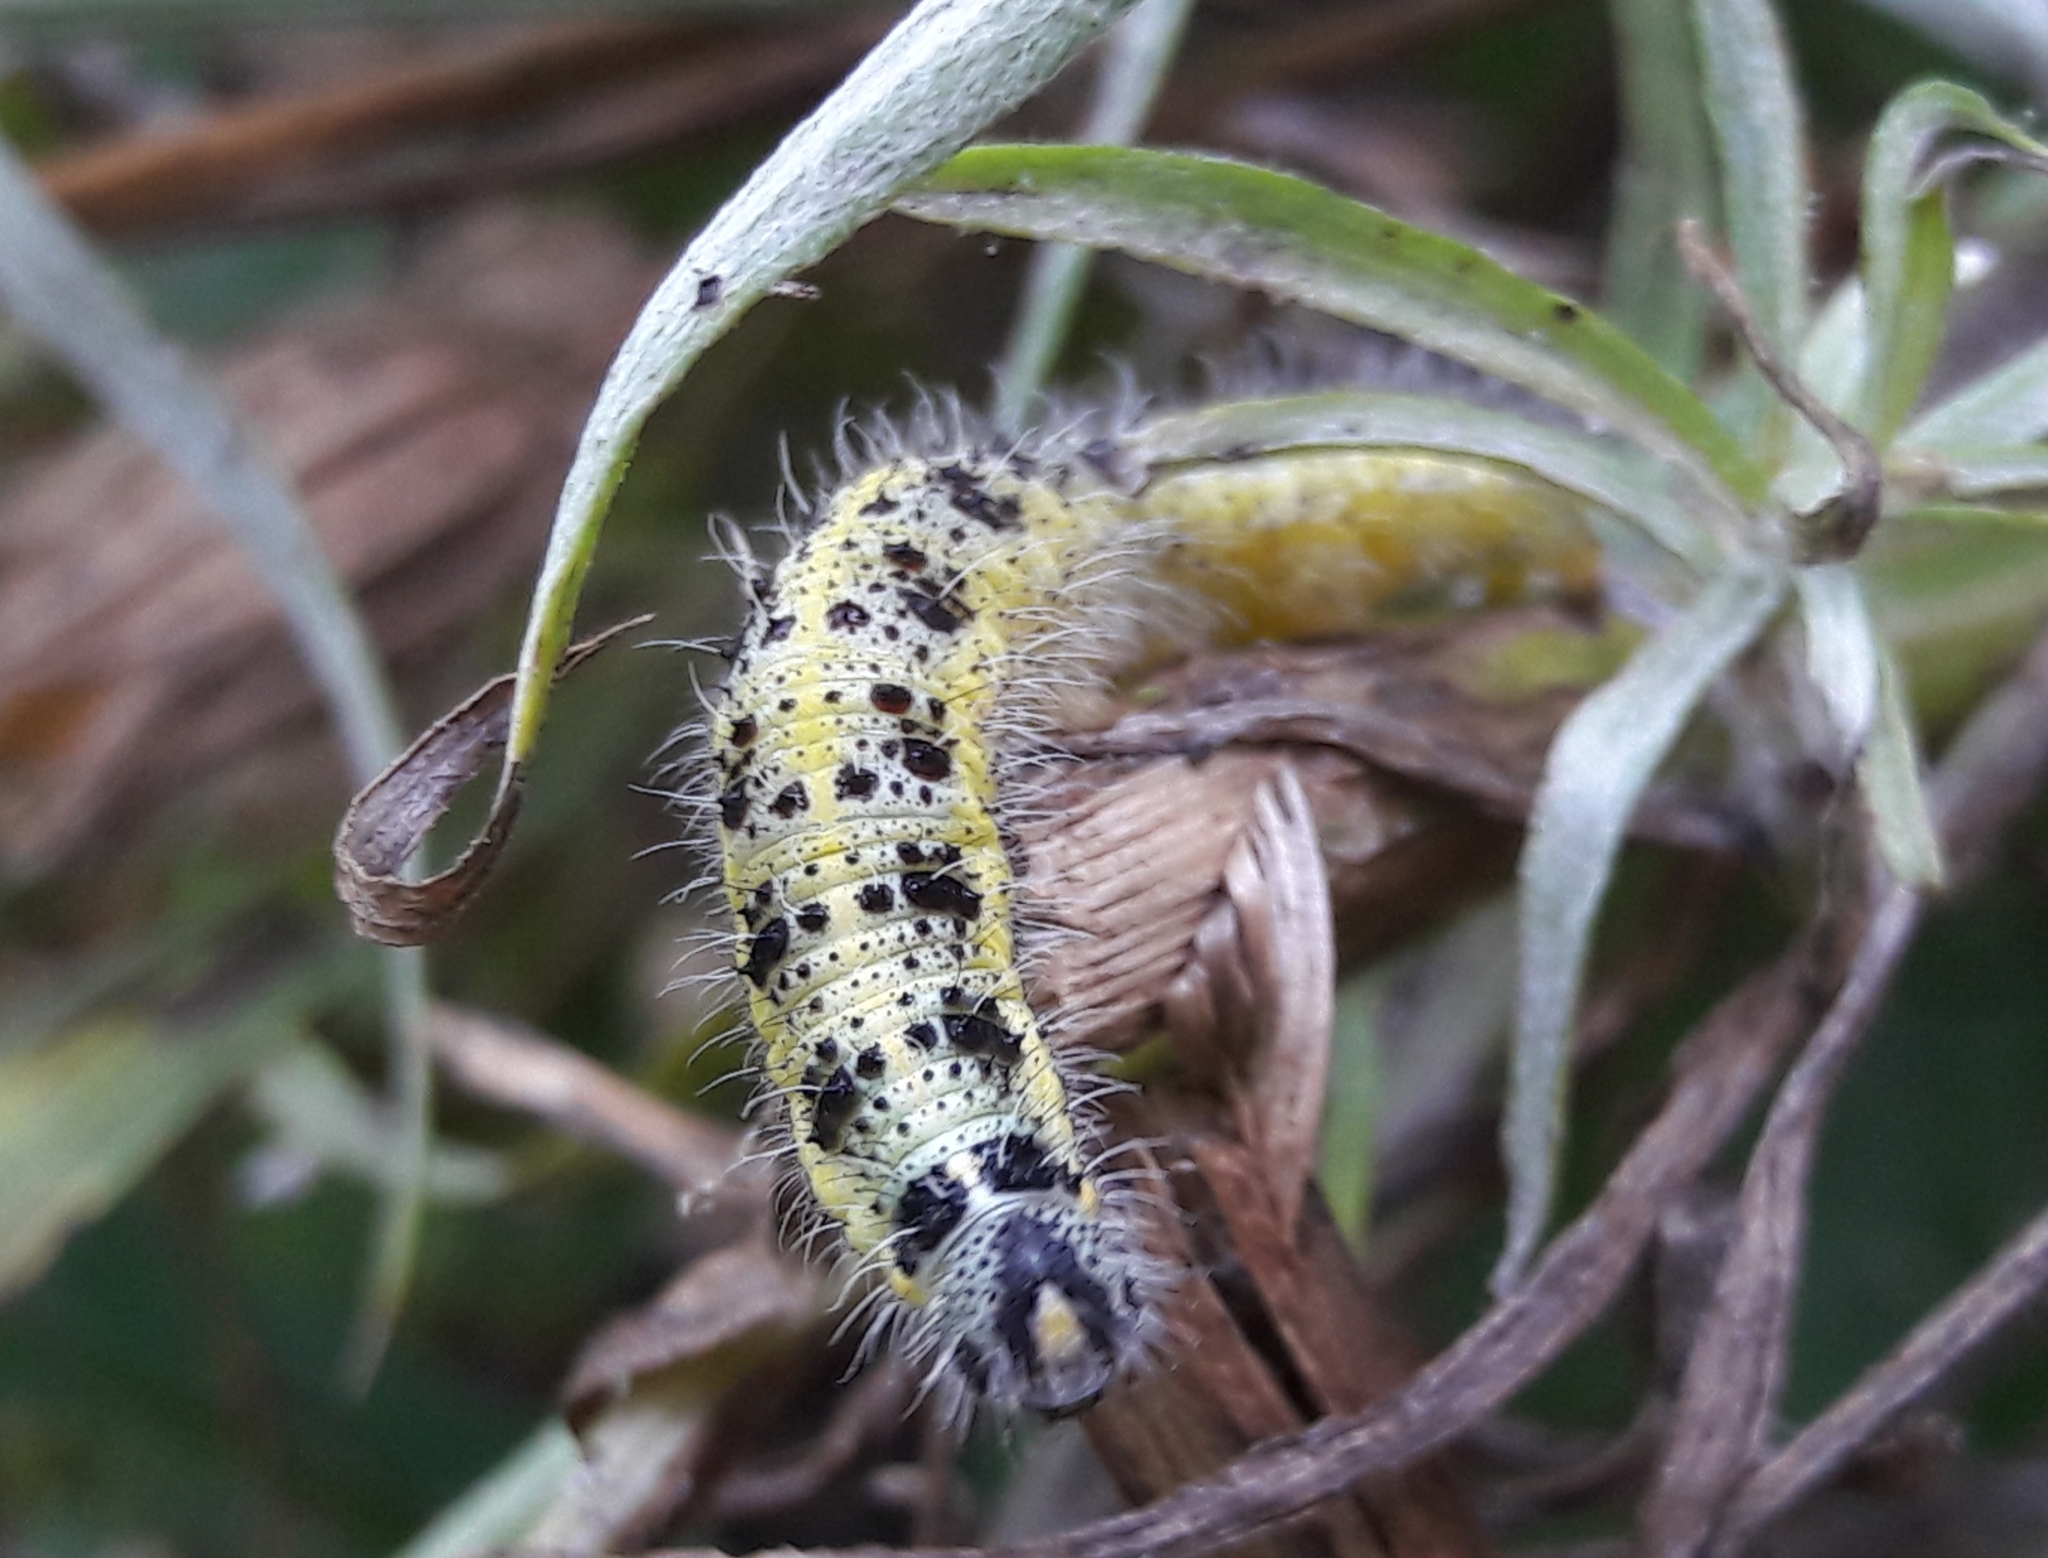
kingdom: Animalia
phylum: Arthropoda
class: Insecta
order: Lepidoptera
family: Pieridae
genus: Pieris
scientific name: Pieris brassicae
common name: Large white
